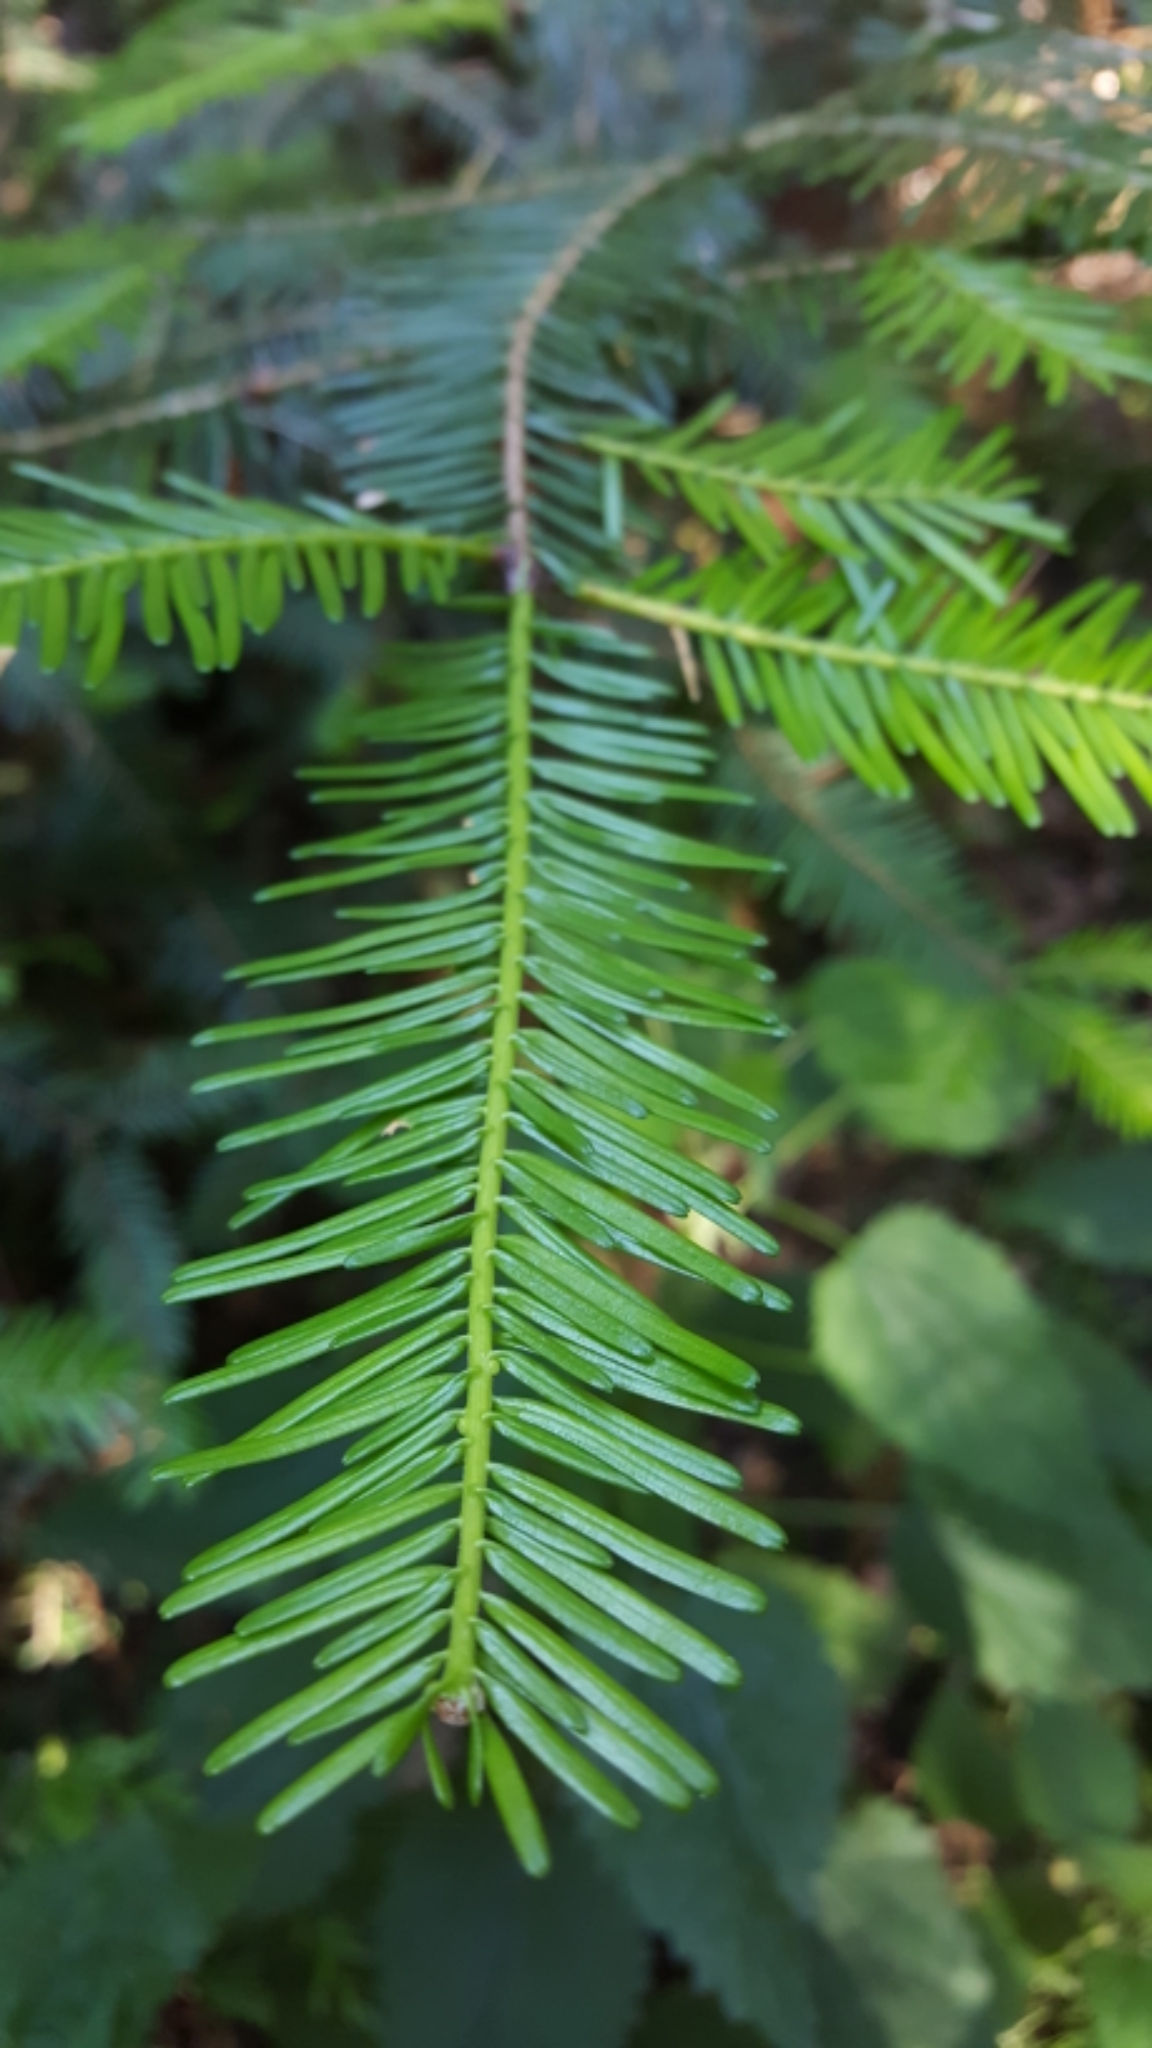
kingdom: Plantae
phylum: Tracheophyta
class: Pinopsida
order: Pinales
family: Pinaceae
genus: Abies
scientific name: Abies grandis
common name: Giant fir
